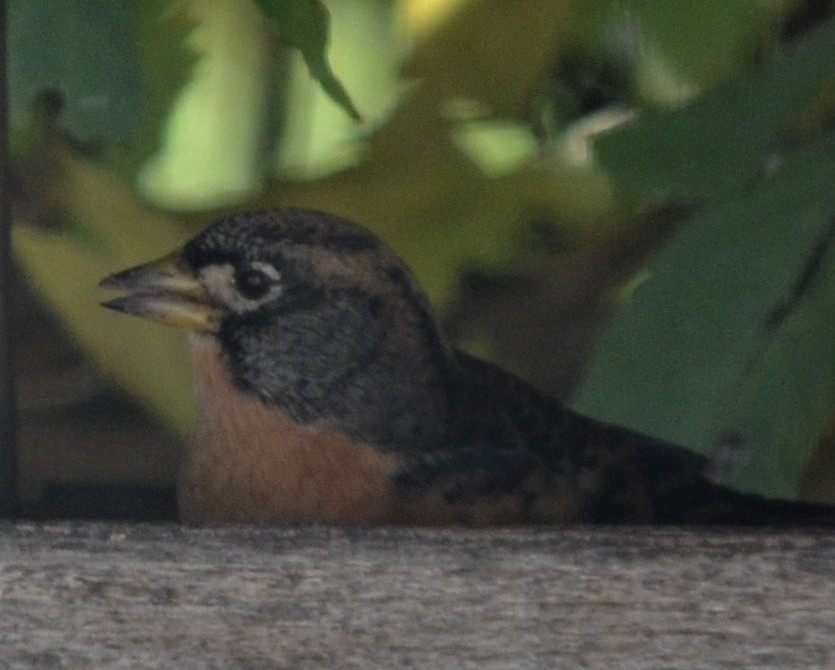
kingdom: Animalia
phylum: Chordata
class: Aves
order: Passeriformes
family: Fringillidae
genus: Fringilla
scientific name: Fringilla montifringilla
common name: Brambling
